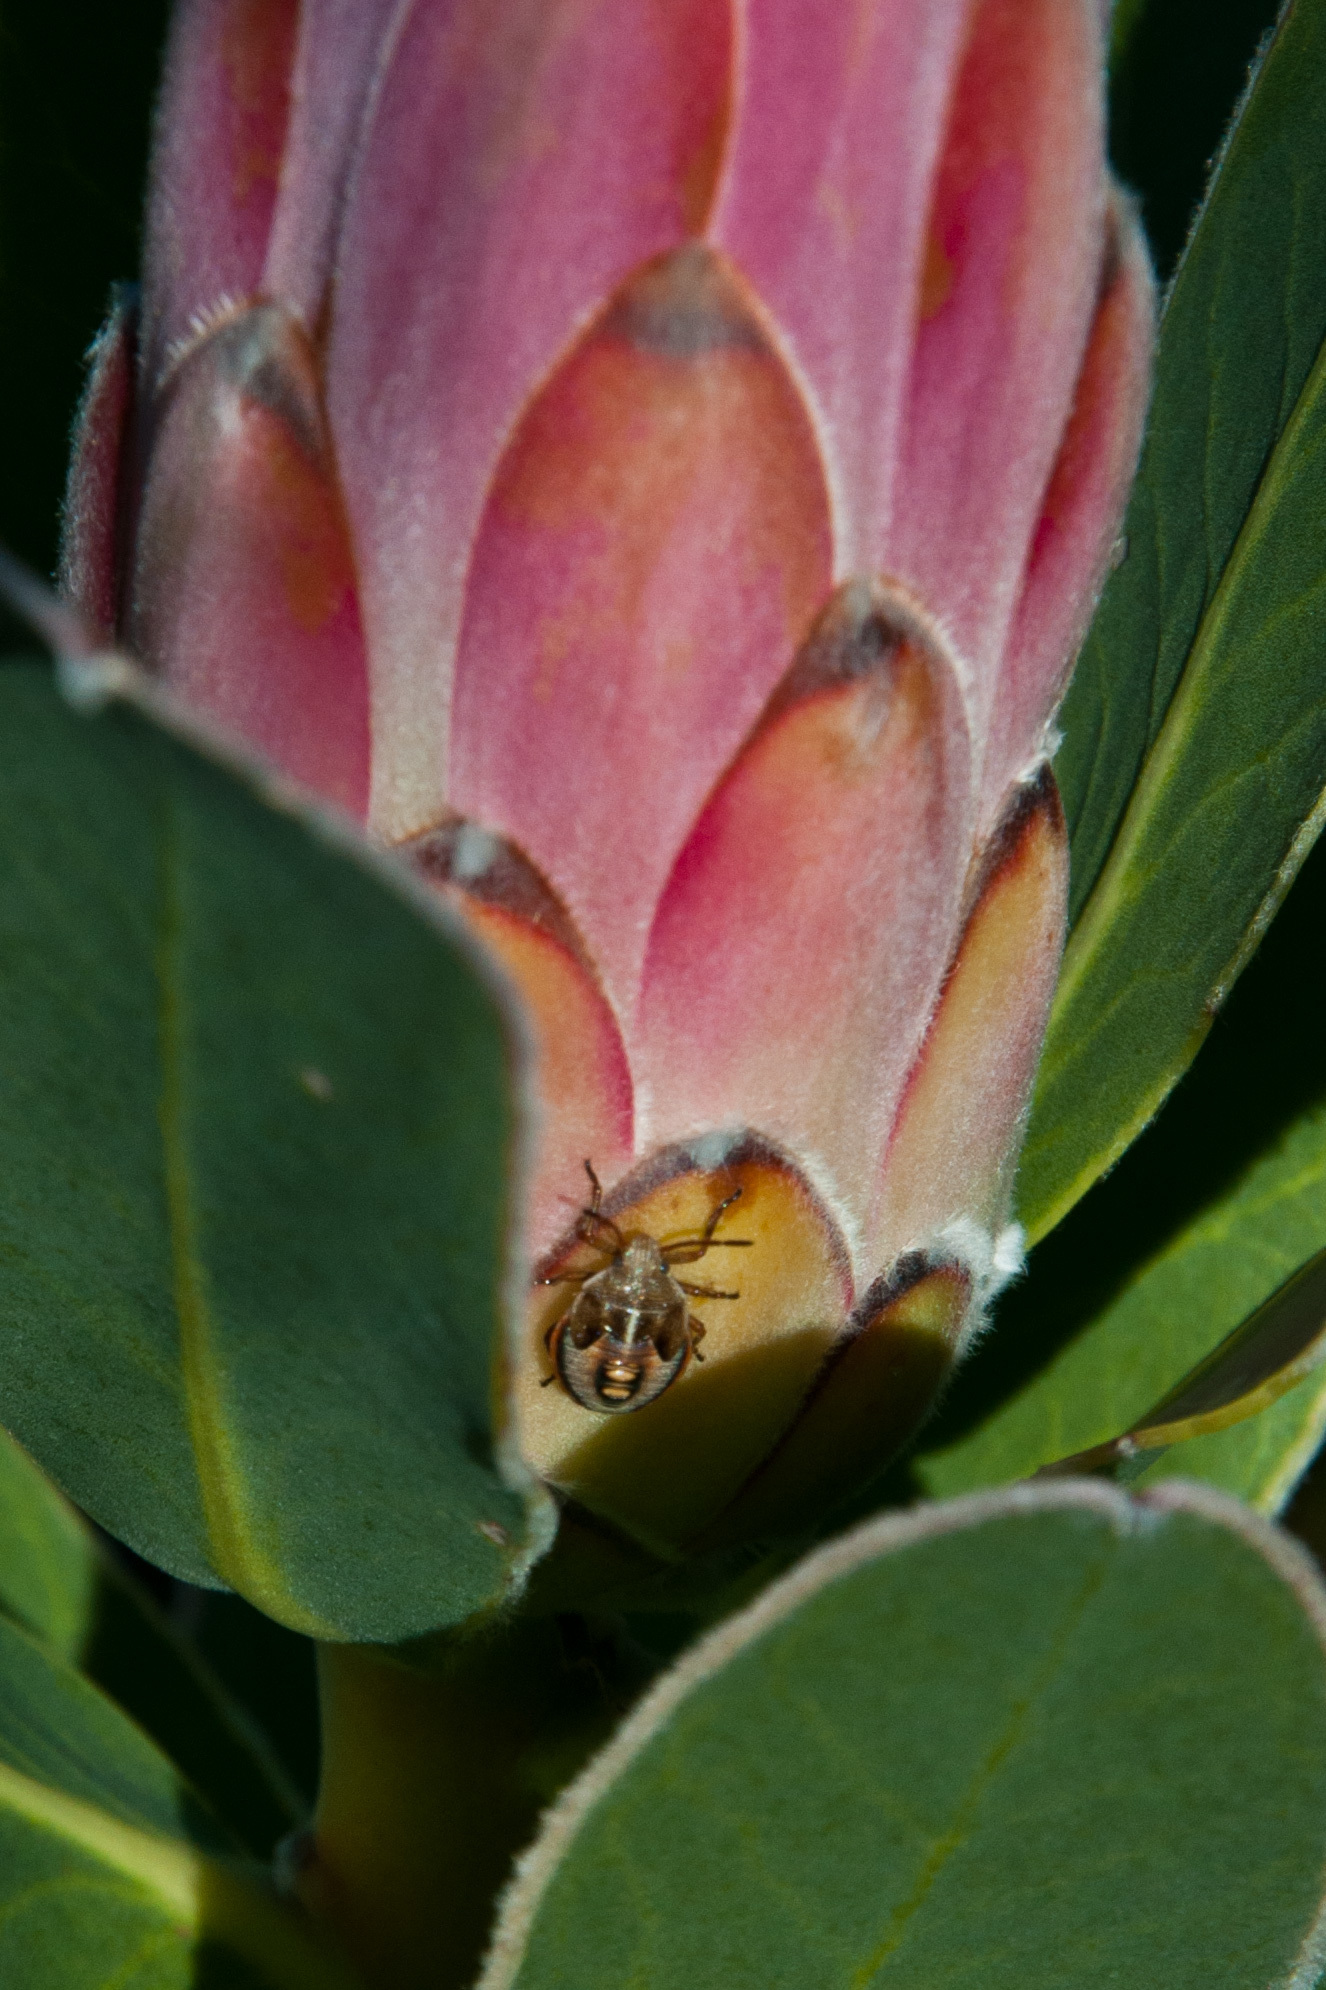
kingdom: Animalia
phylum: Arthropoda
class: Insecta
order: Hemiptera
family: Pentatomidae
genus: Theloris
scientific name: Theloris costata
